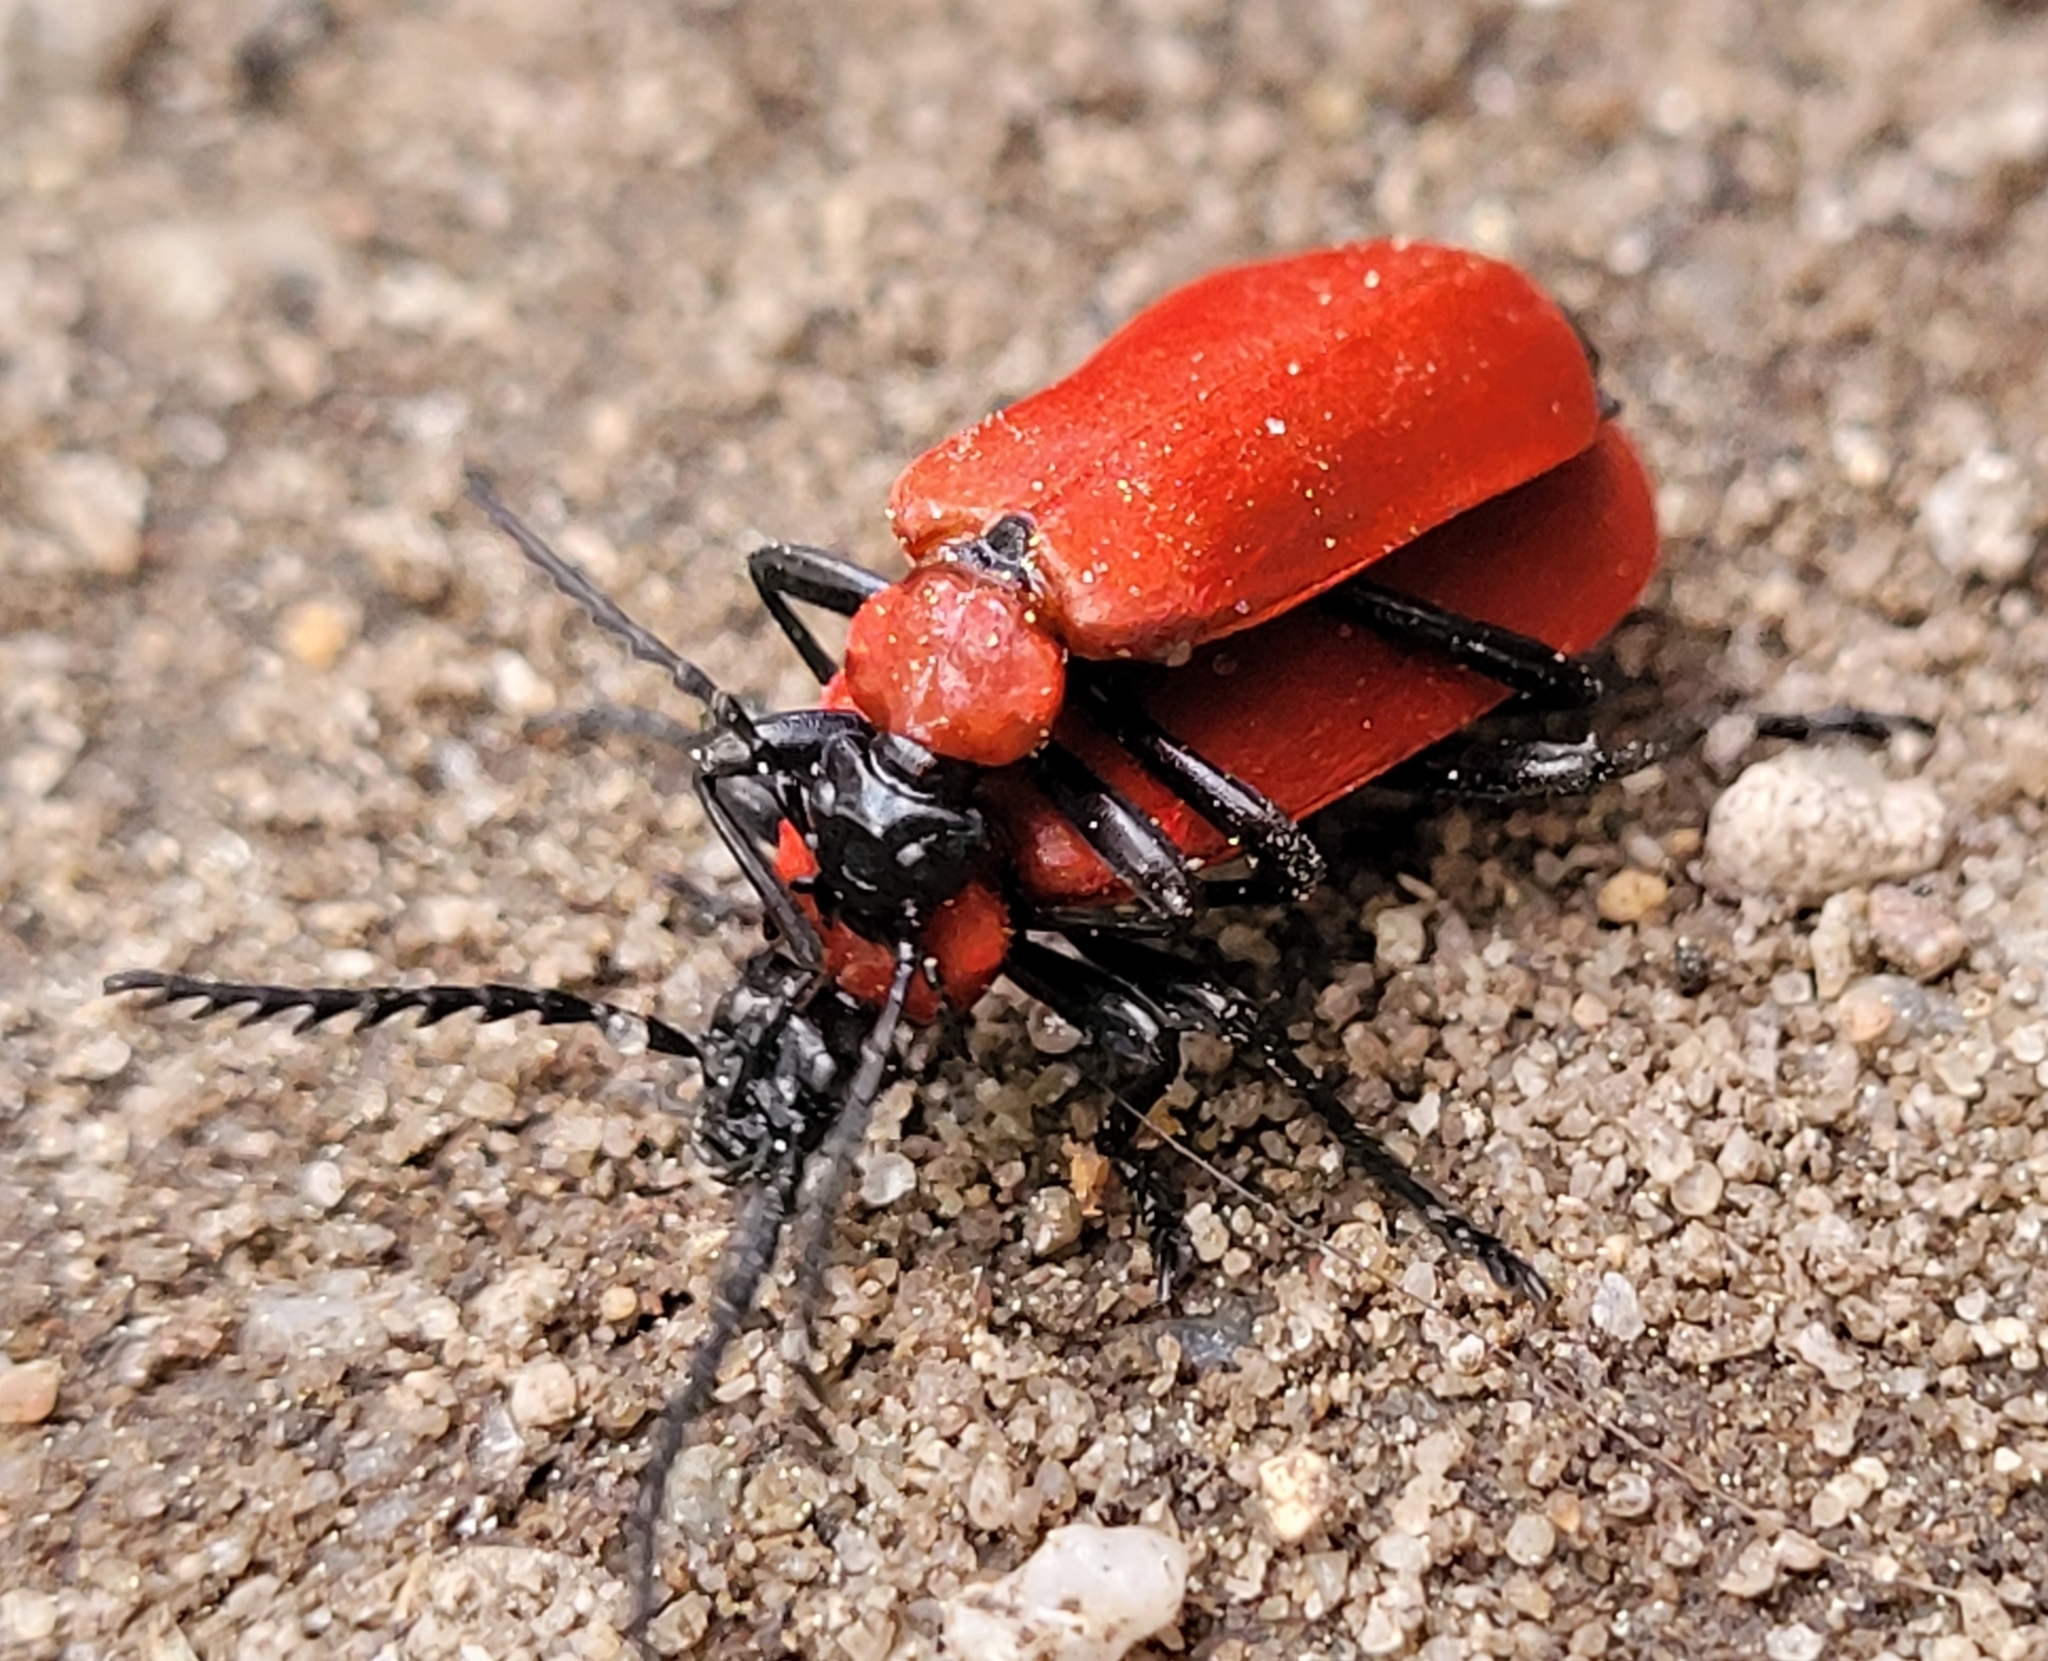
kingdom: Animalia
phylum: Arthropoda
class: Insecta
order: Coleoptera
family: Pyrochroidae
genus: Pyrochroa
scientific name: Pyrochroa coccinea
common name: Black-headed cardinal beetle
